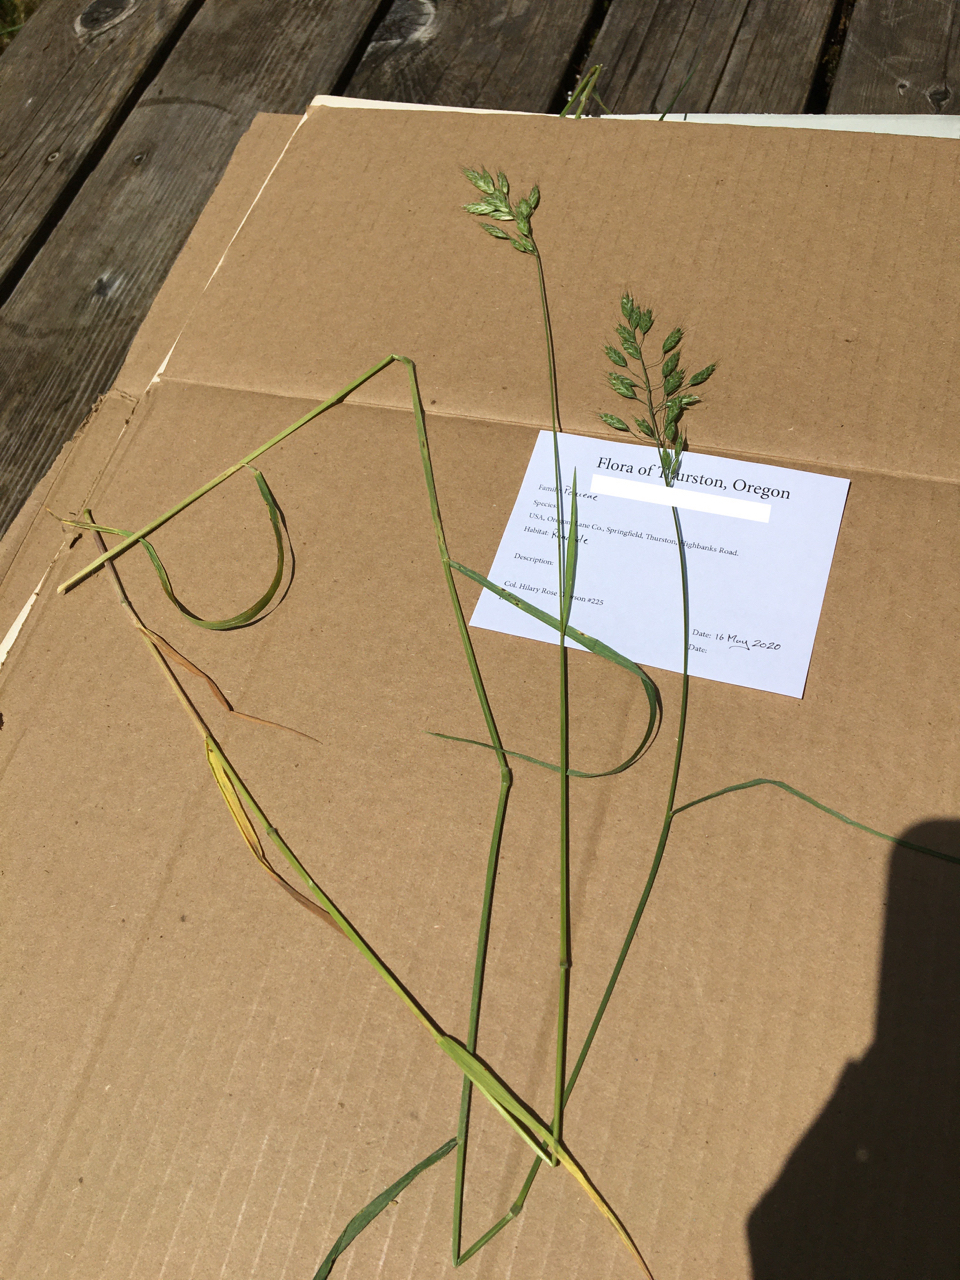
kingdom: Plantae
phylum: Tracheophyta
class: Liliopsida
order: Poales
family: Poaceae
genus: Bromus
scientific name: Bromus hordeaceus
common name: Soft brome
